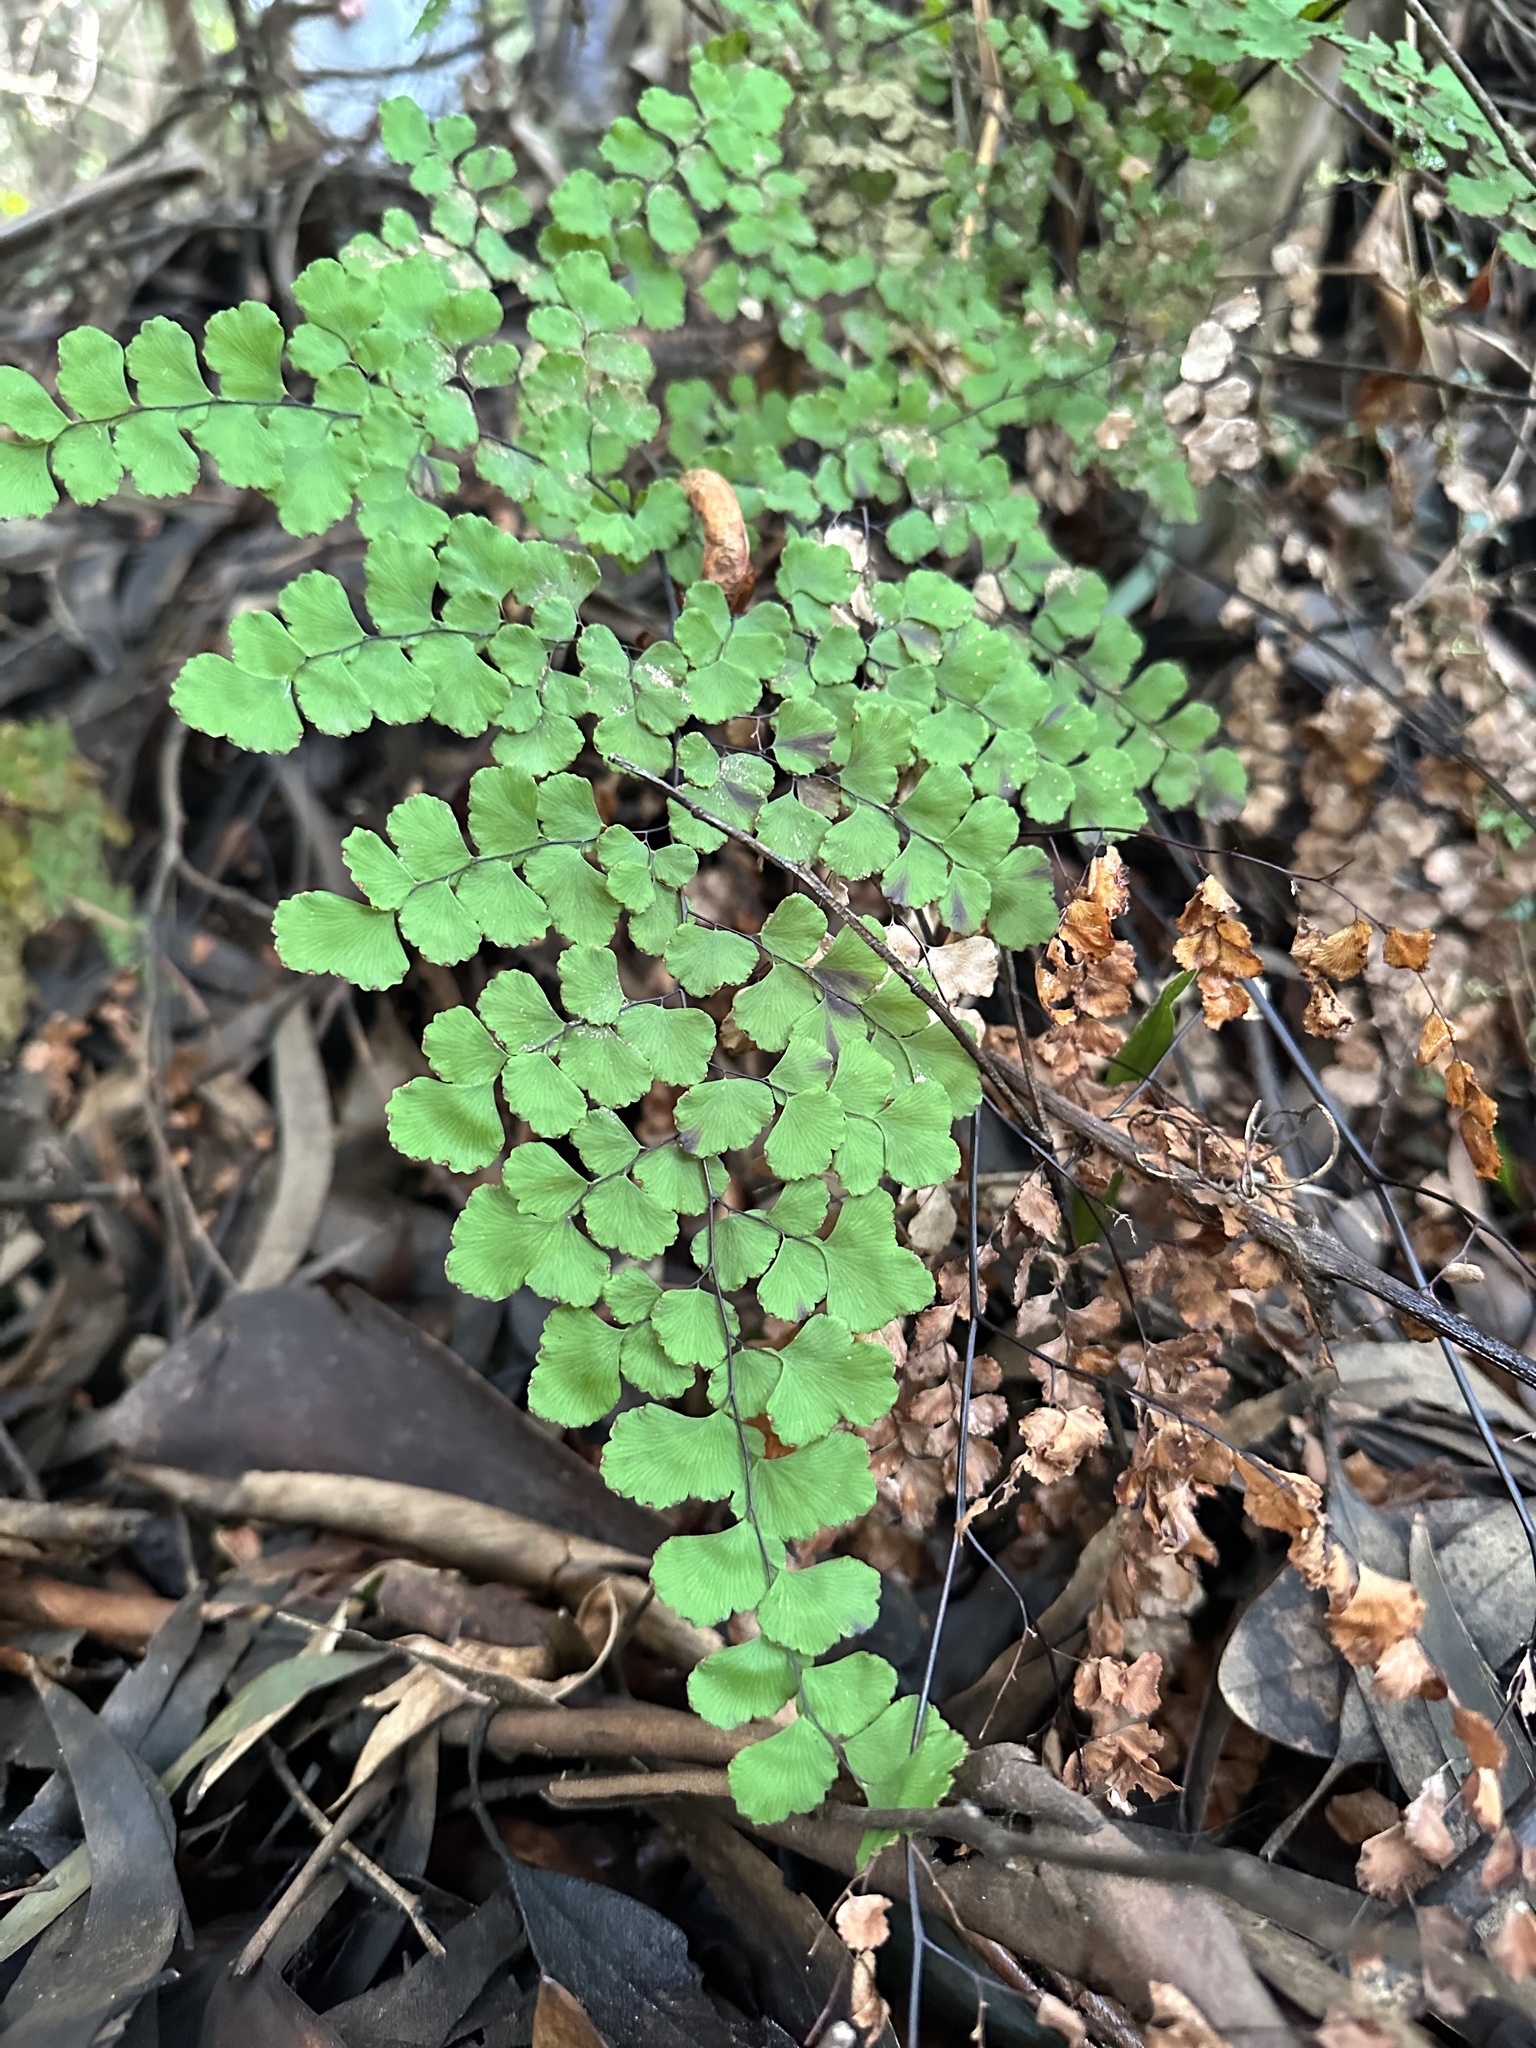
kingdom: Plantae
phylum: Tracheophyta
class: Polypodiopsida
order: Polypodiales
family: Pteridaceae
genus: Adiantum
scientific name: Adiantum chilense
